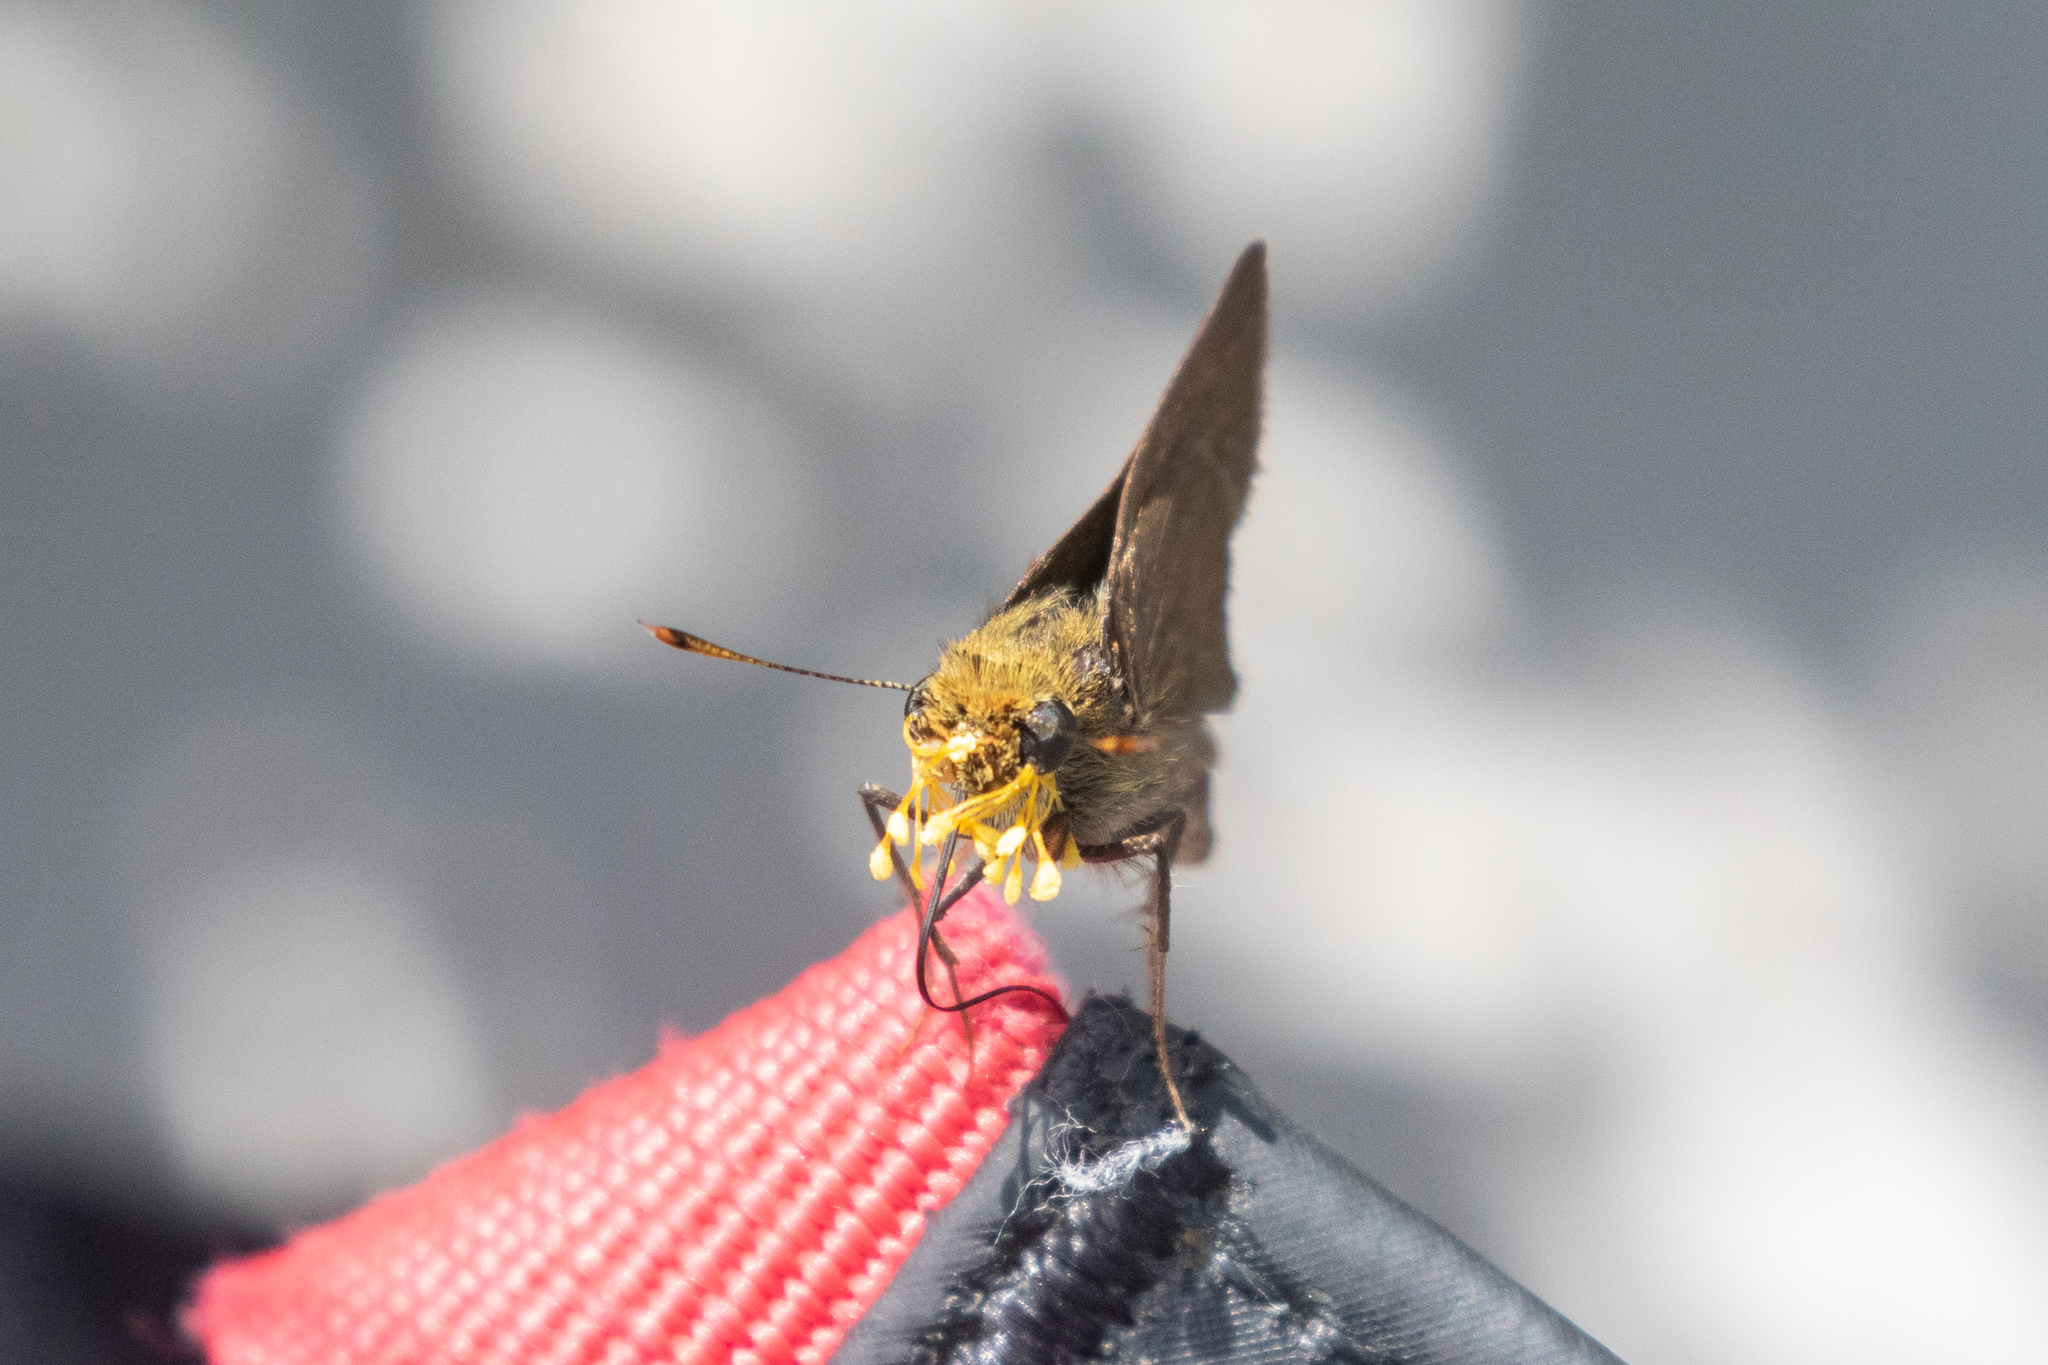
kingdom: Animalia
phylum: Arthropoda
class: Insecta
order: Lepidoptera
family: Hesperiidae
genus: Euphyes
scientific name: Euphyes vestris
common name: Dun skipper
